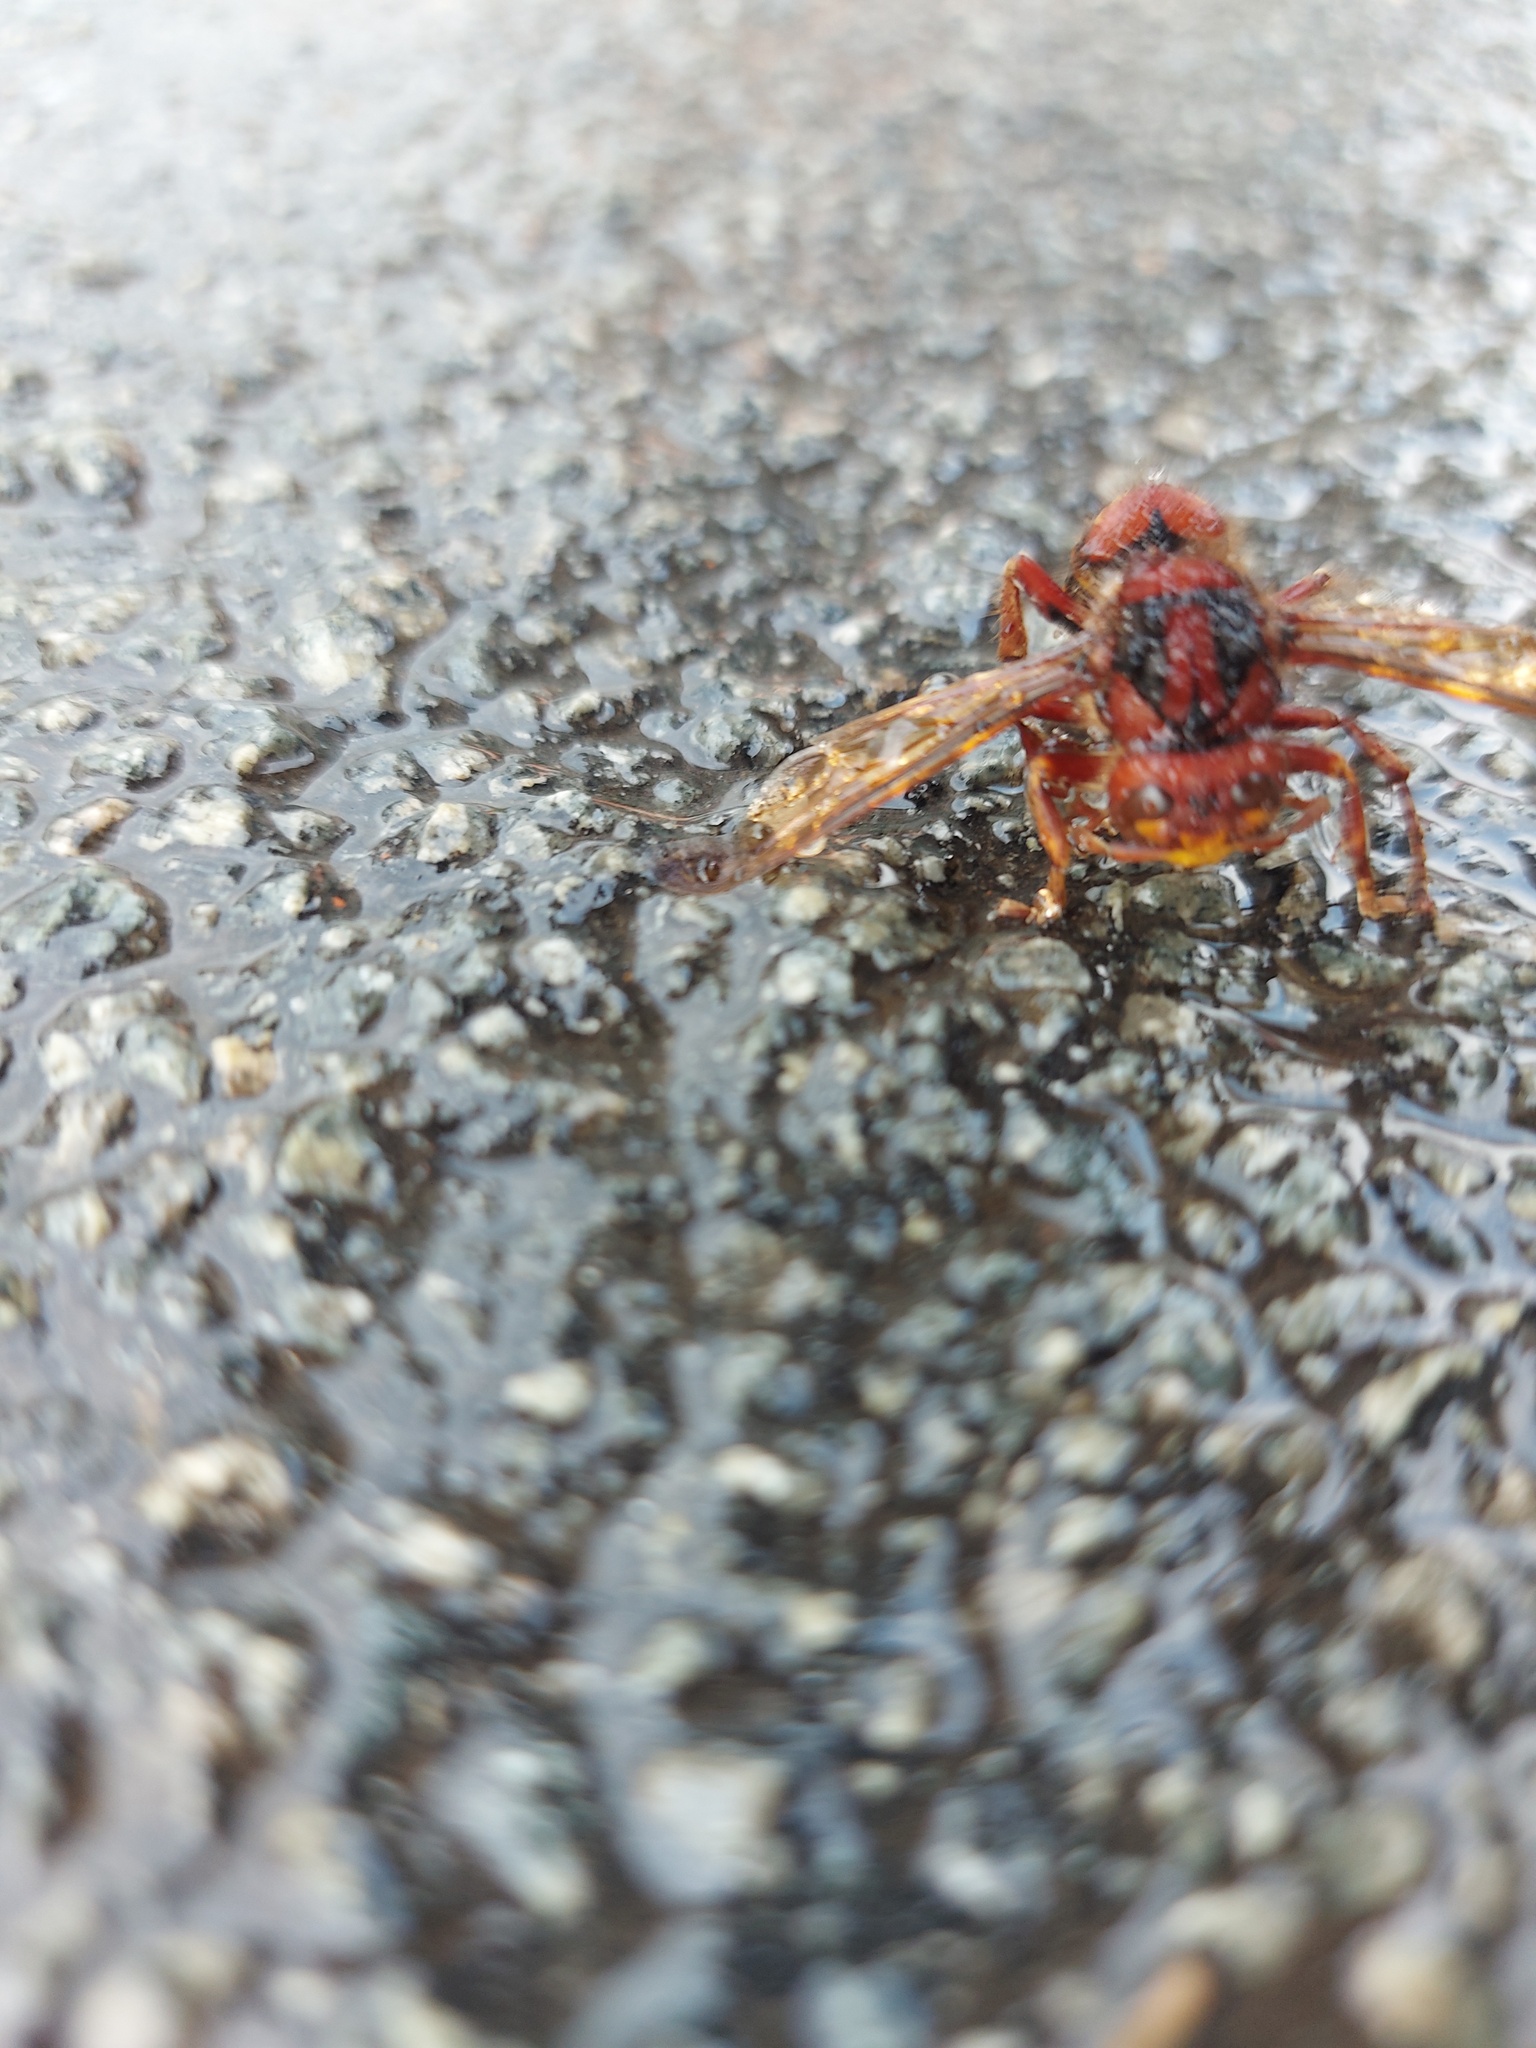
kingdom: Animalia
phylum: Arthropoda
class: Insecta
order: Hymenoptera
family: Vespidae
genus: Vespa
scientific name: Vespa crabro
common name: Hornet
